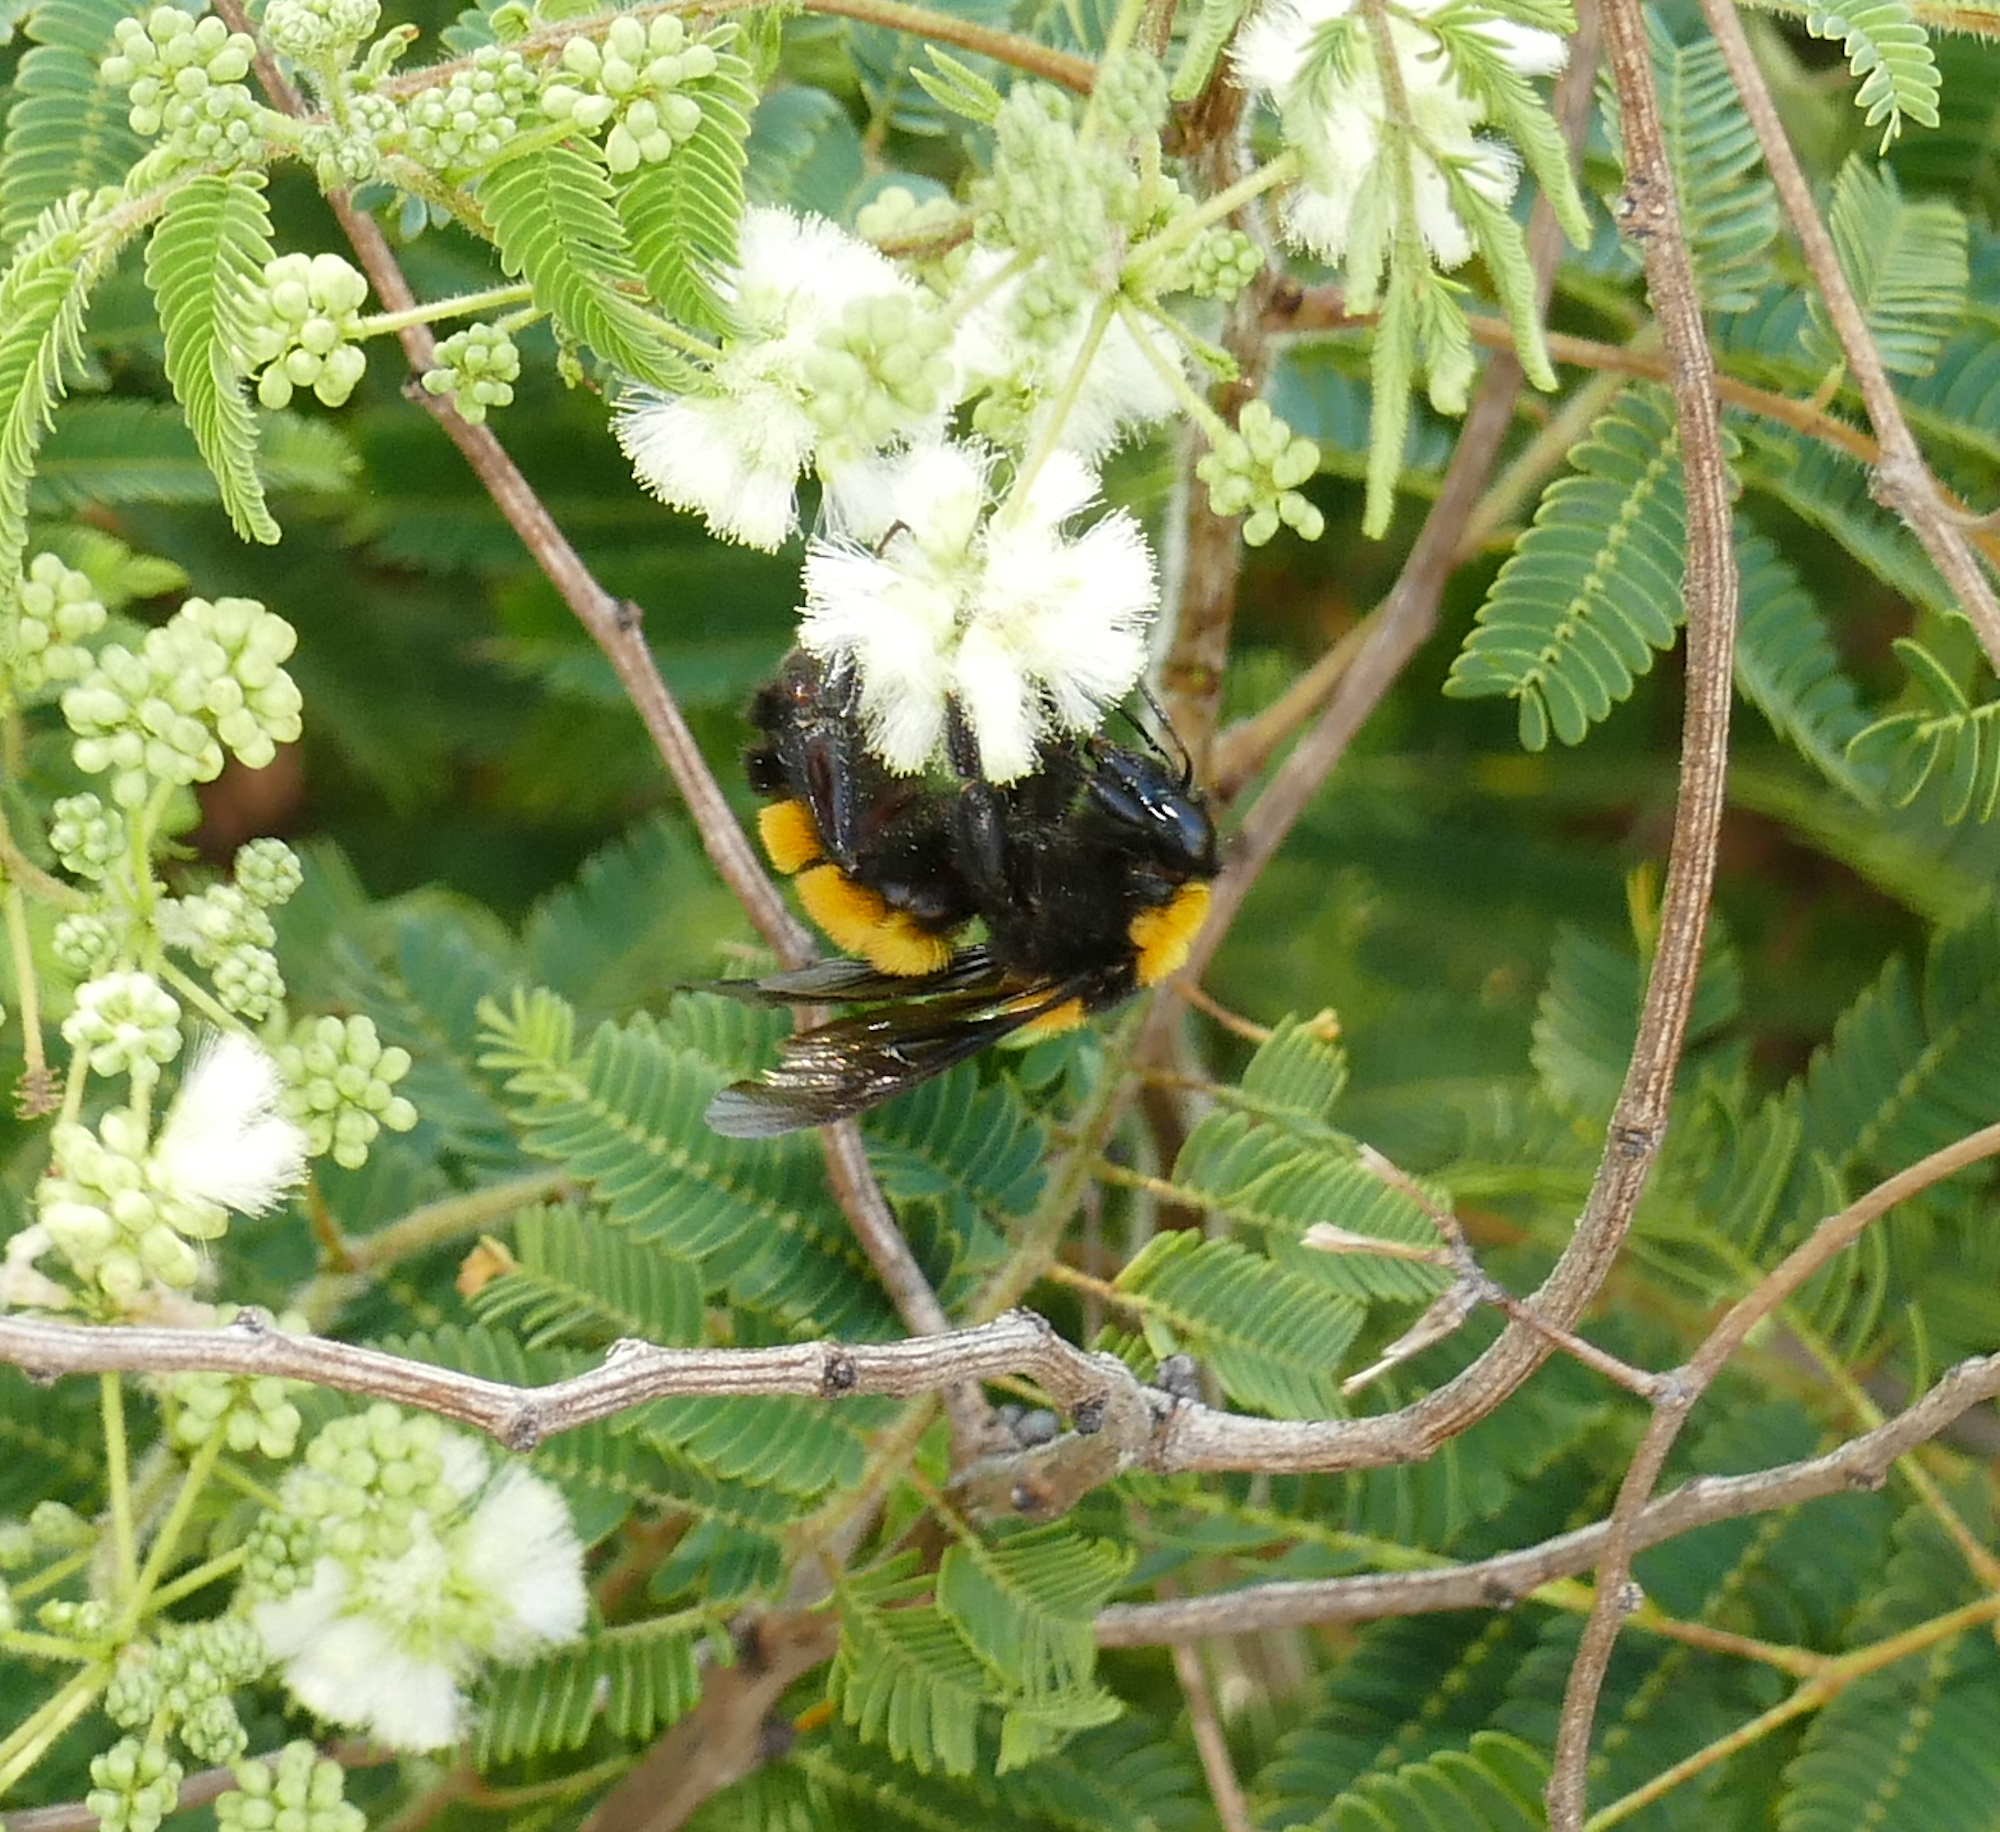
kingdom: Animalia
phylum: Arthropoda
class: Insecta
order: Hymenoptera
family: Apidae
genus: Bombus
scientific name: Bombus sonorus
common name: Sonoran bumble bee
